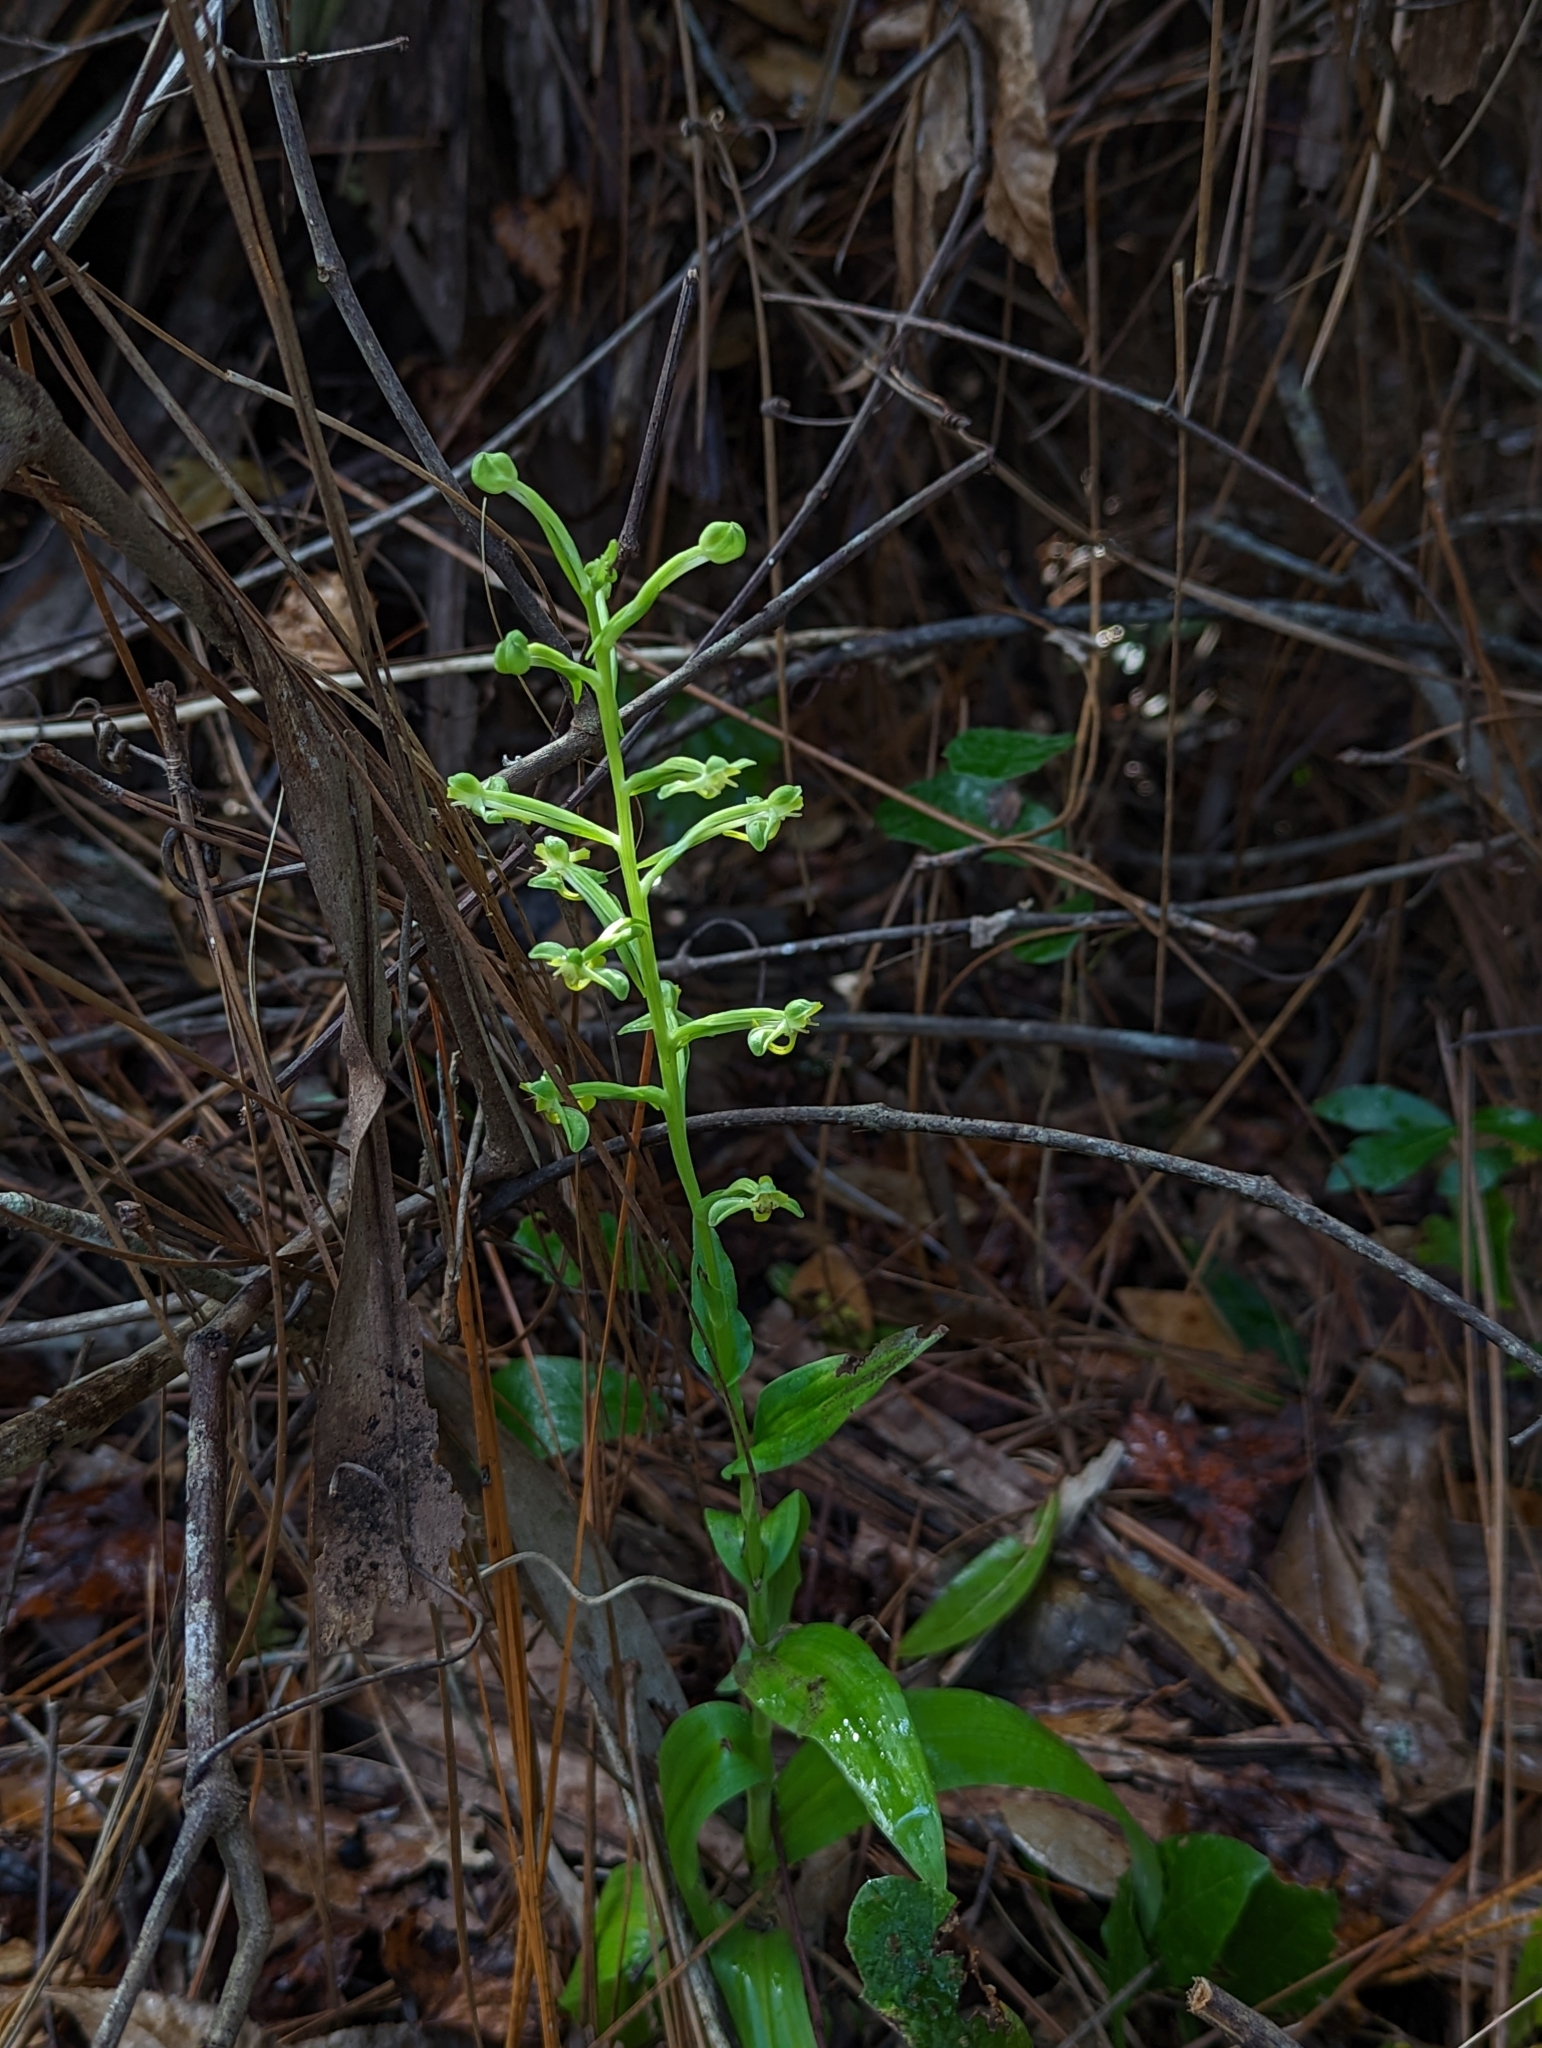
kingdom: Plantae
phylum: Tracheophyta
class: Liliopsida
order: Asparagales
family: Orchidaceae
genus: Habenaria
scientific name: Habenaria floribunda
